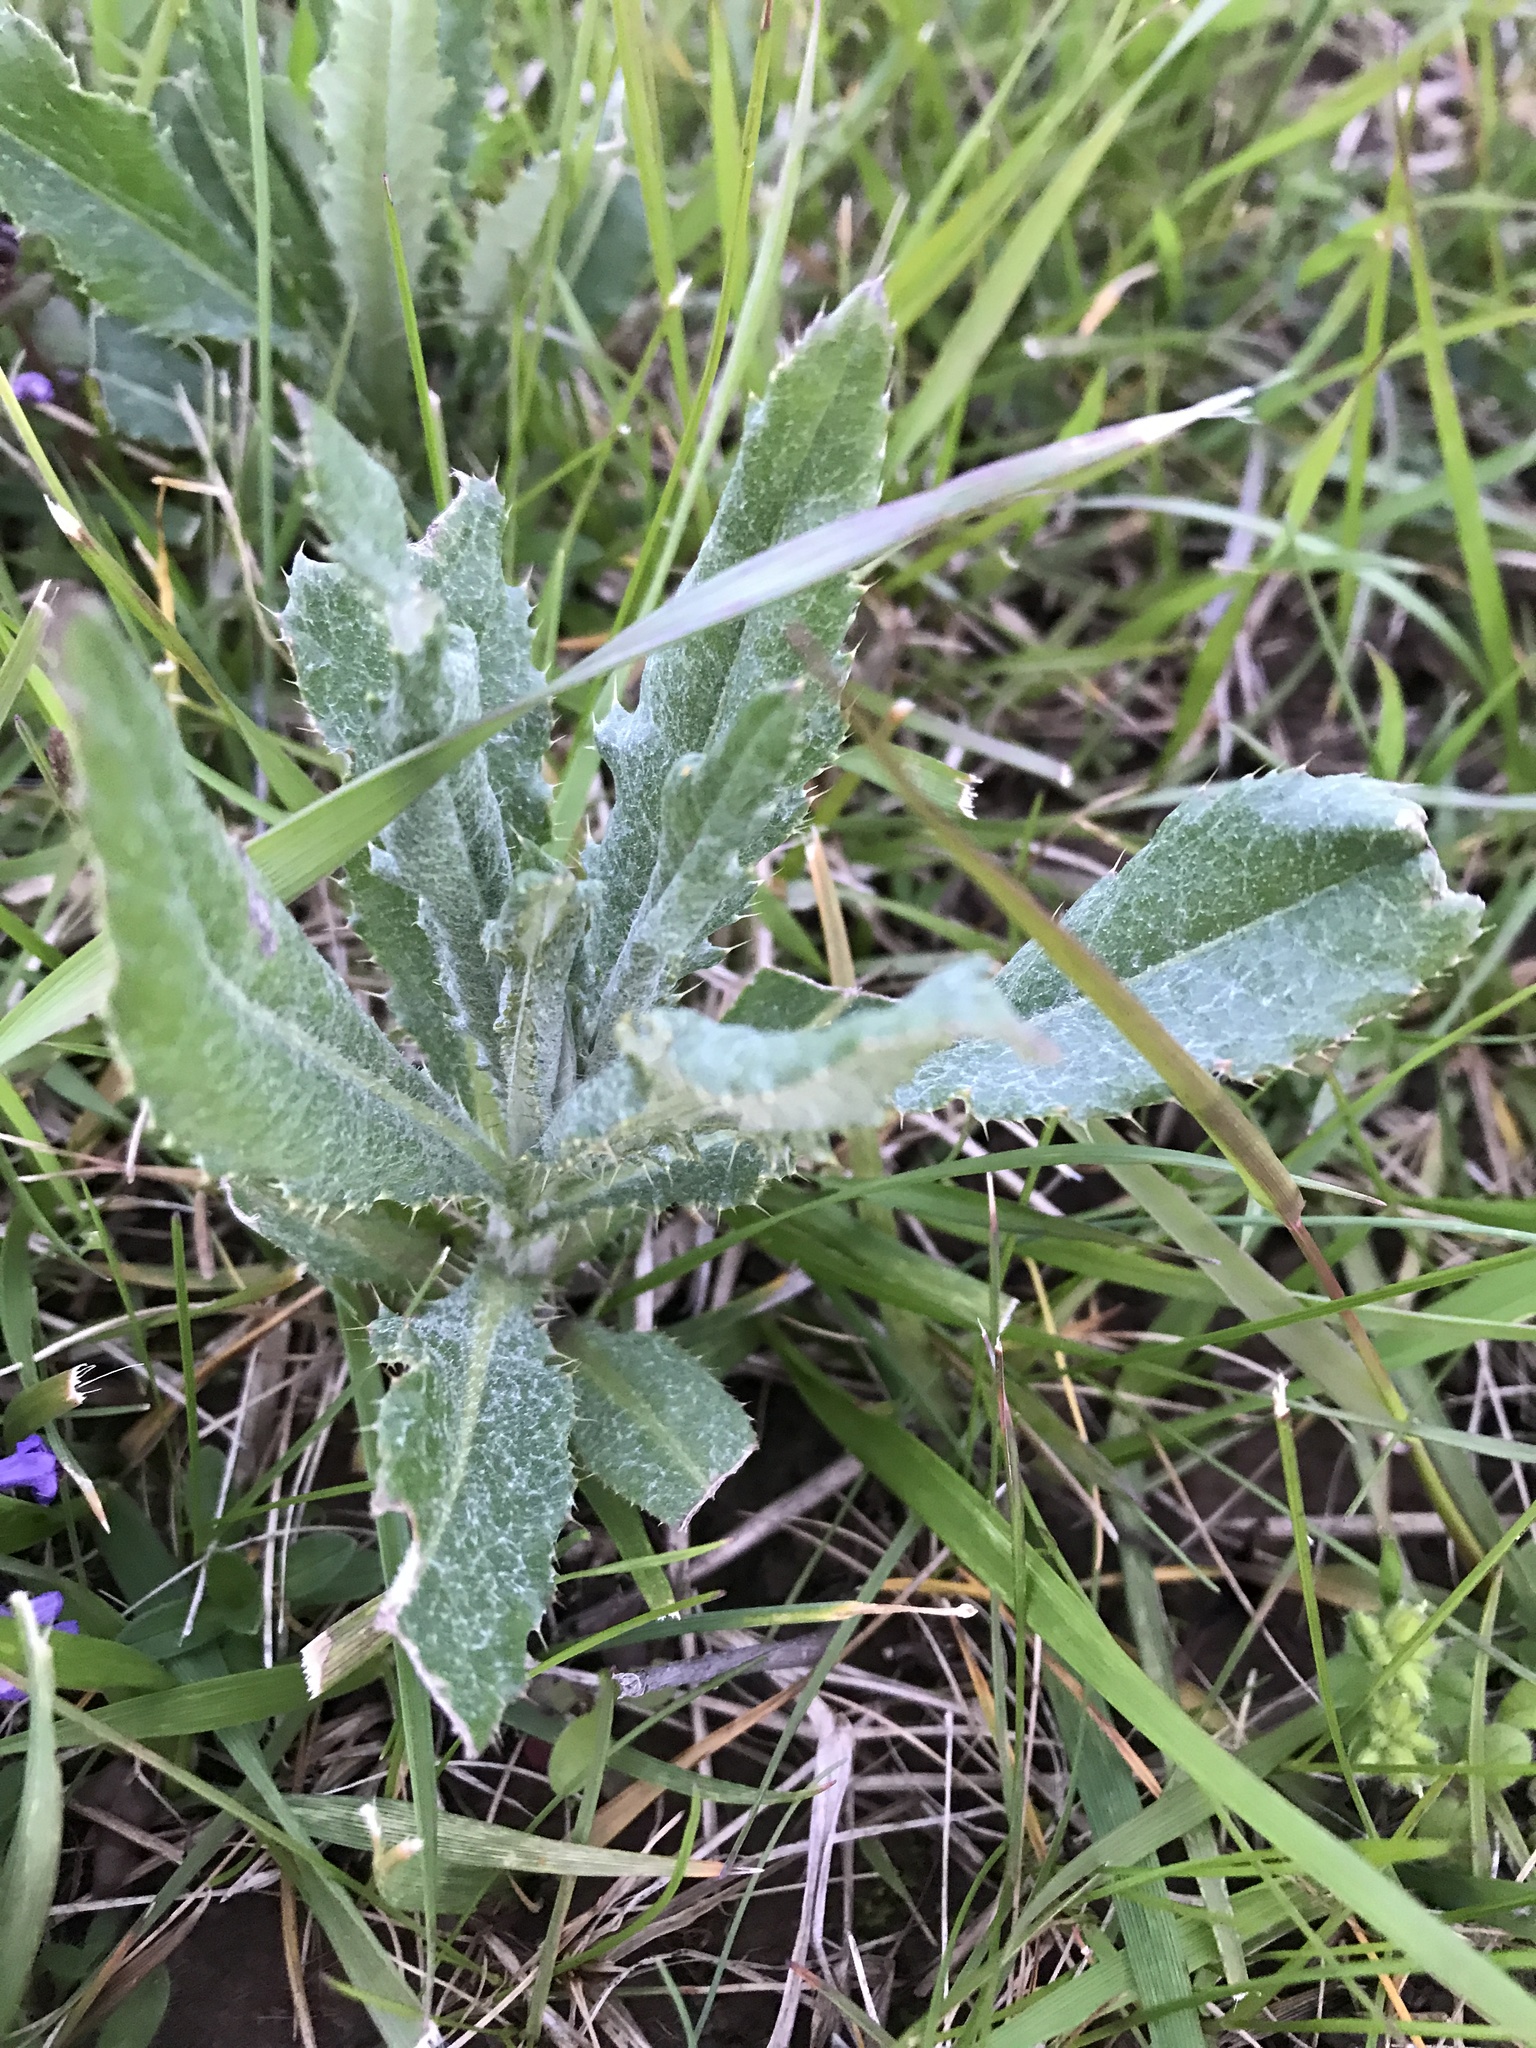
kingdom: Plantae
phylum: Tracheophyta
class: Magnoliopsida
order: Asterales
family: Asteraceae
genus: Cirsium
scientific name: Cirsium arvense
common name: Creeping thistle
